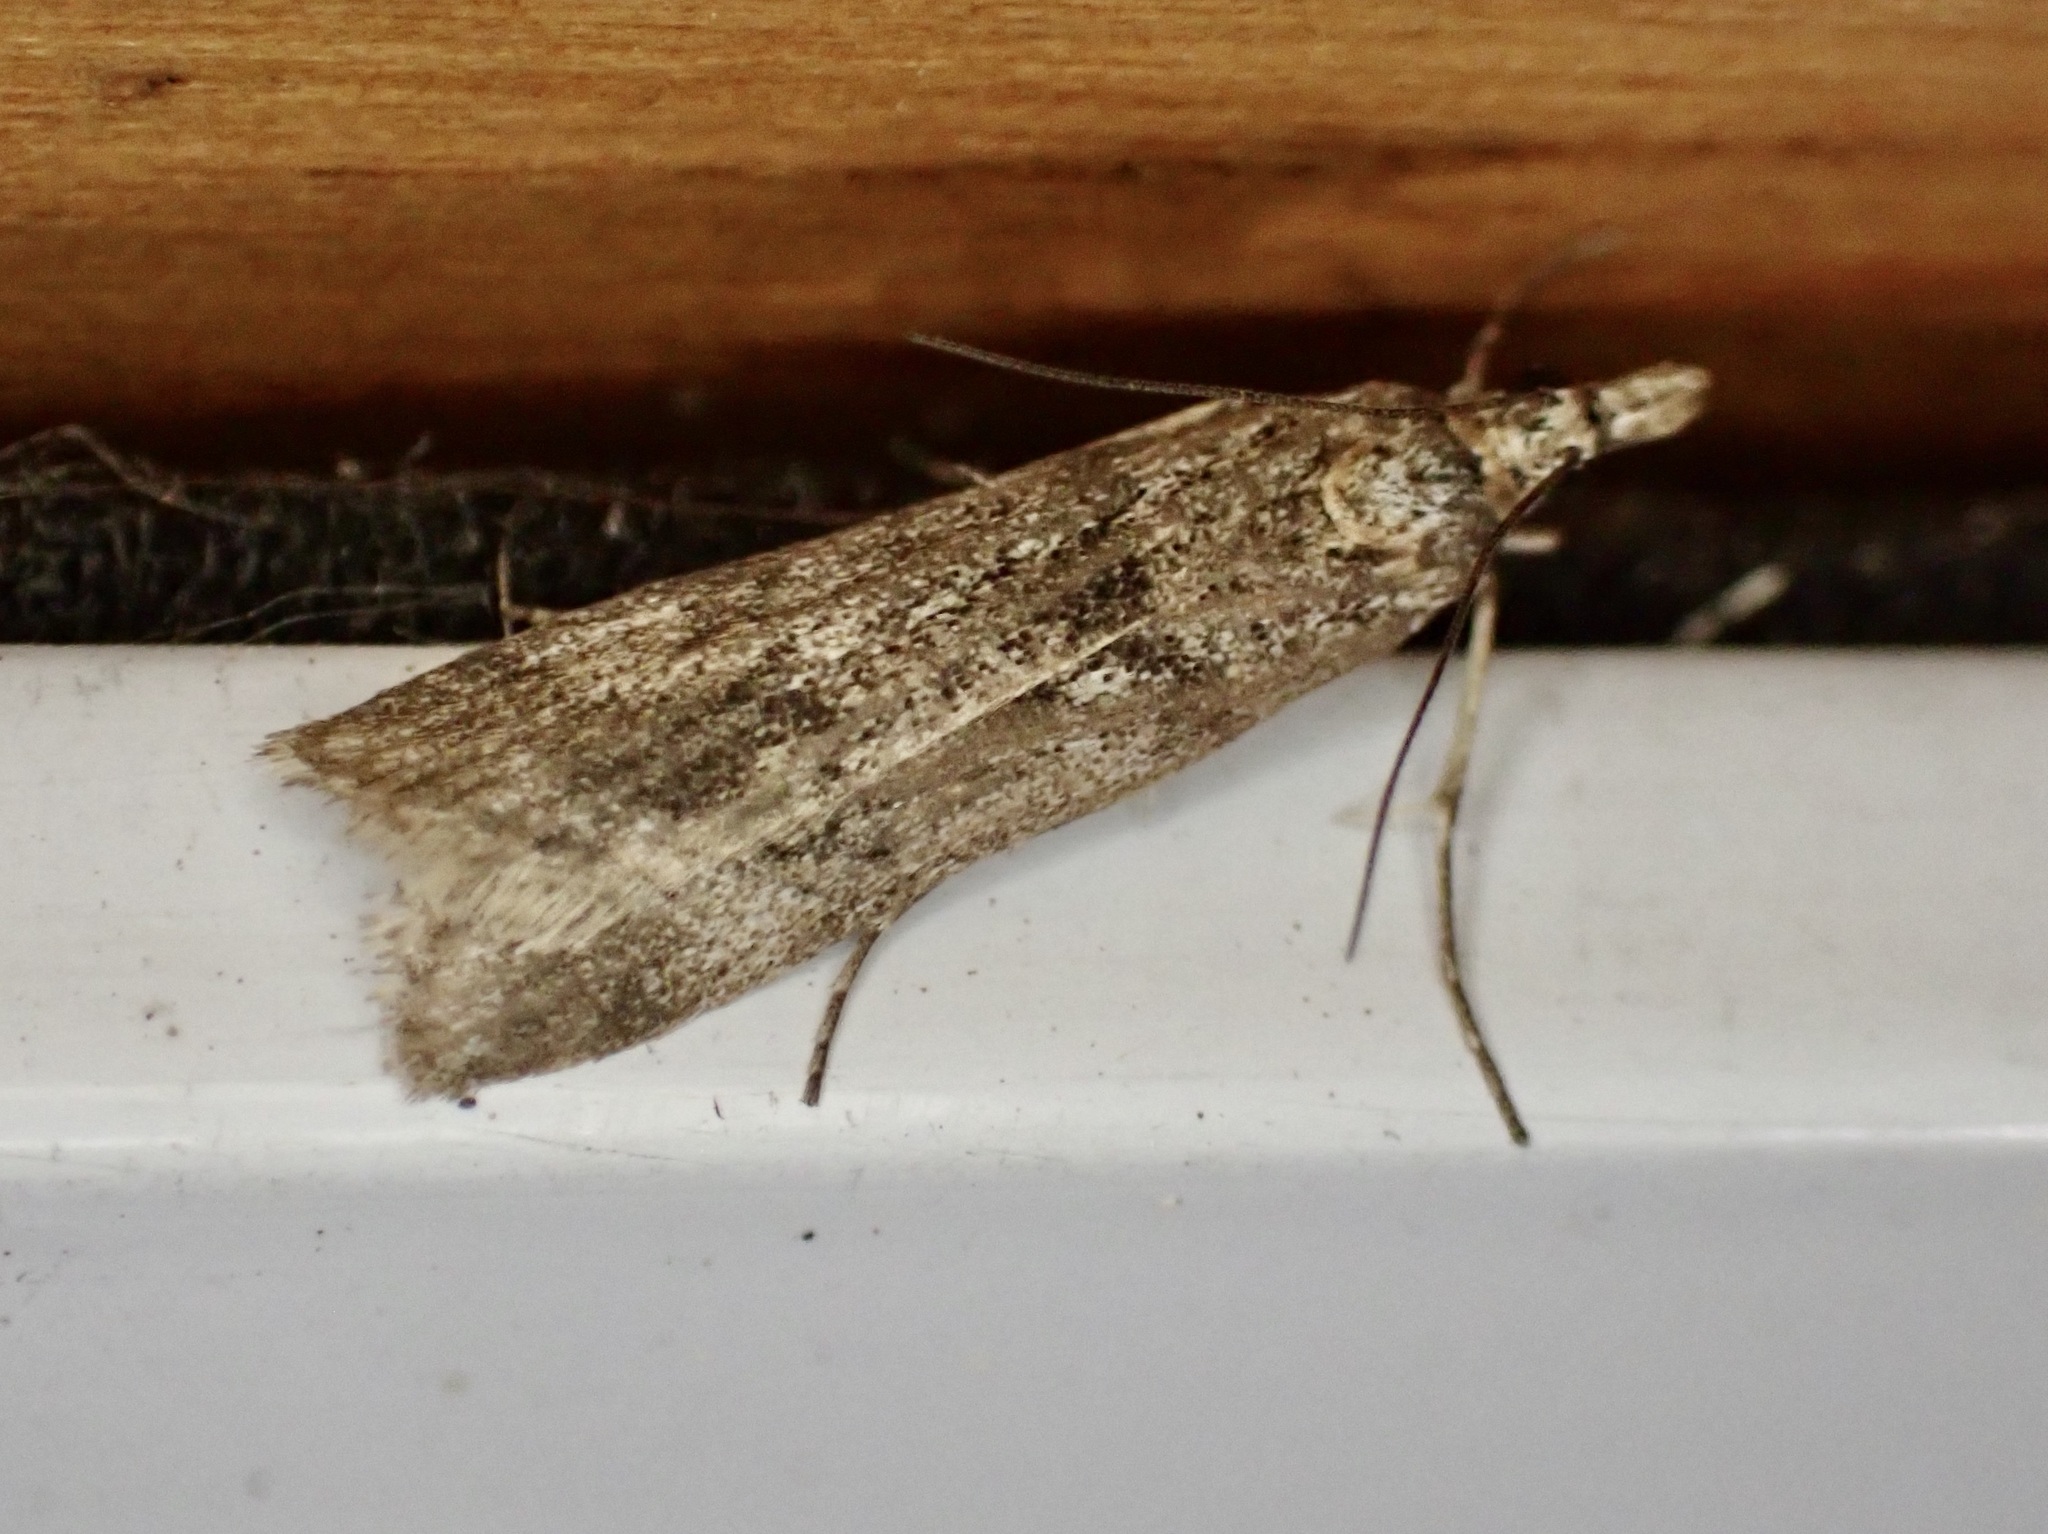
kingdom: Animalia
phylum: Arthropoda
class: Insecta
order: Lepidoptera
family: Crambidae
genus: Eudonia
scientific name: Eudonia leptalea
